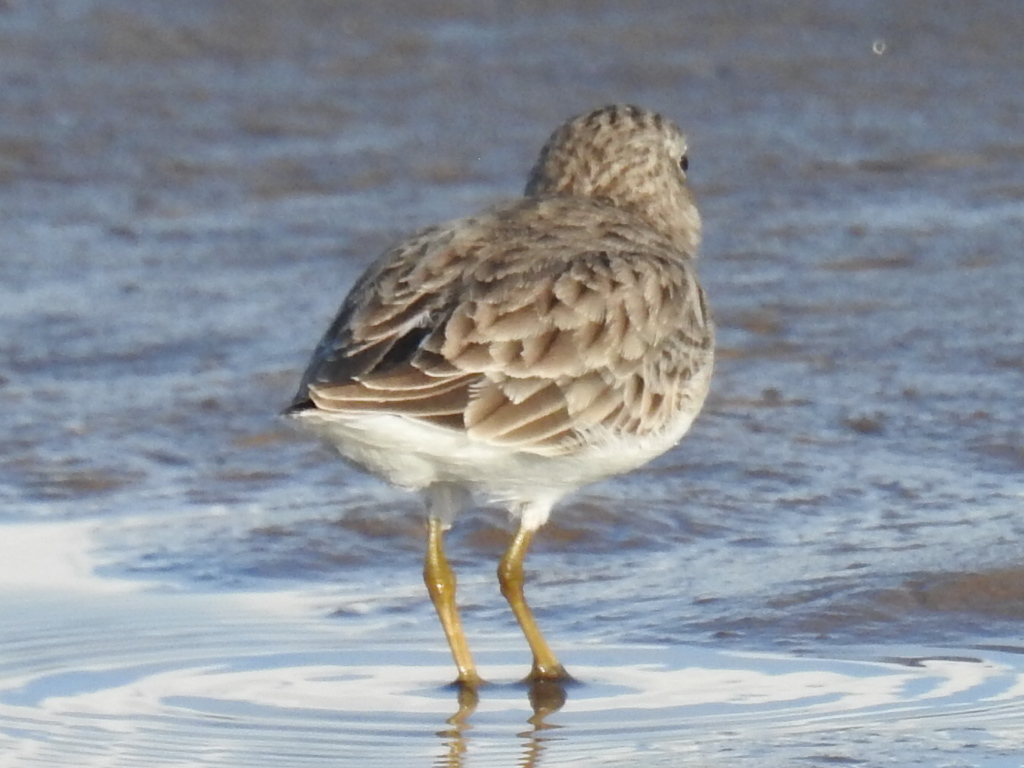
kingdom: Animalia
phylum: Chordata
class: Aves
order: Charadriiformes
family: Scolopacidae
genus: Calidris
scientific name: Calidris minutilla
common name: Least sandpiper
